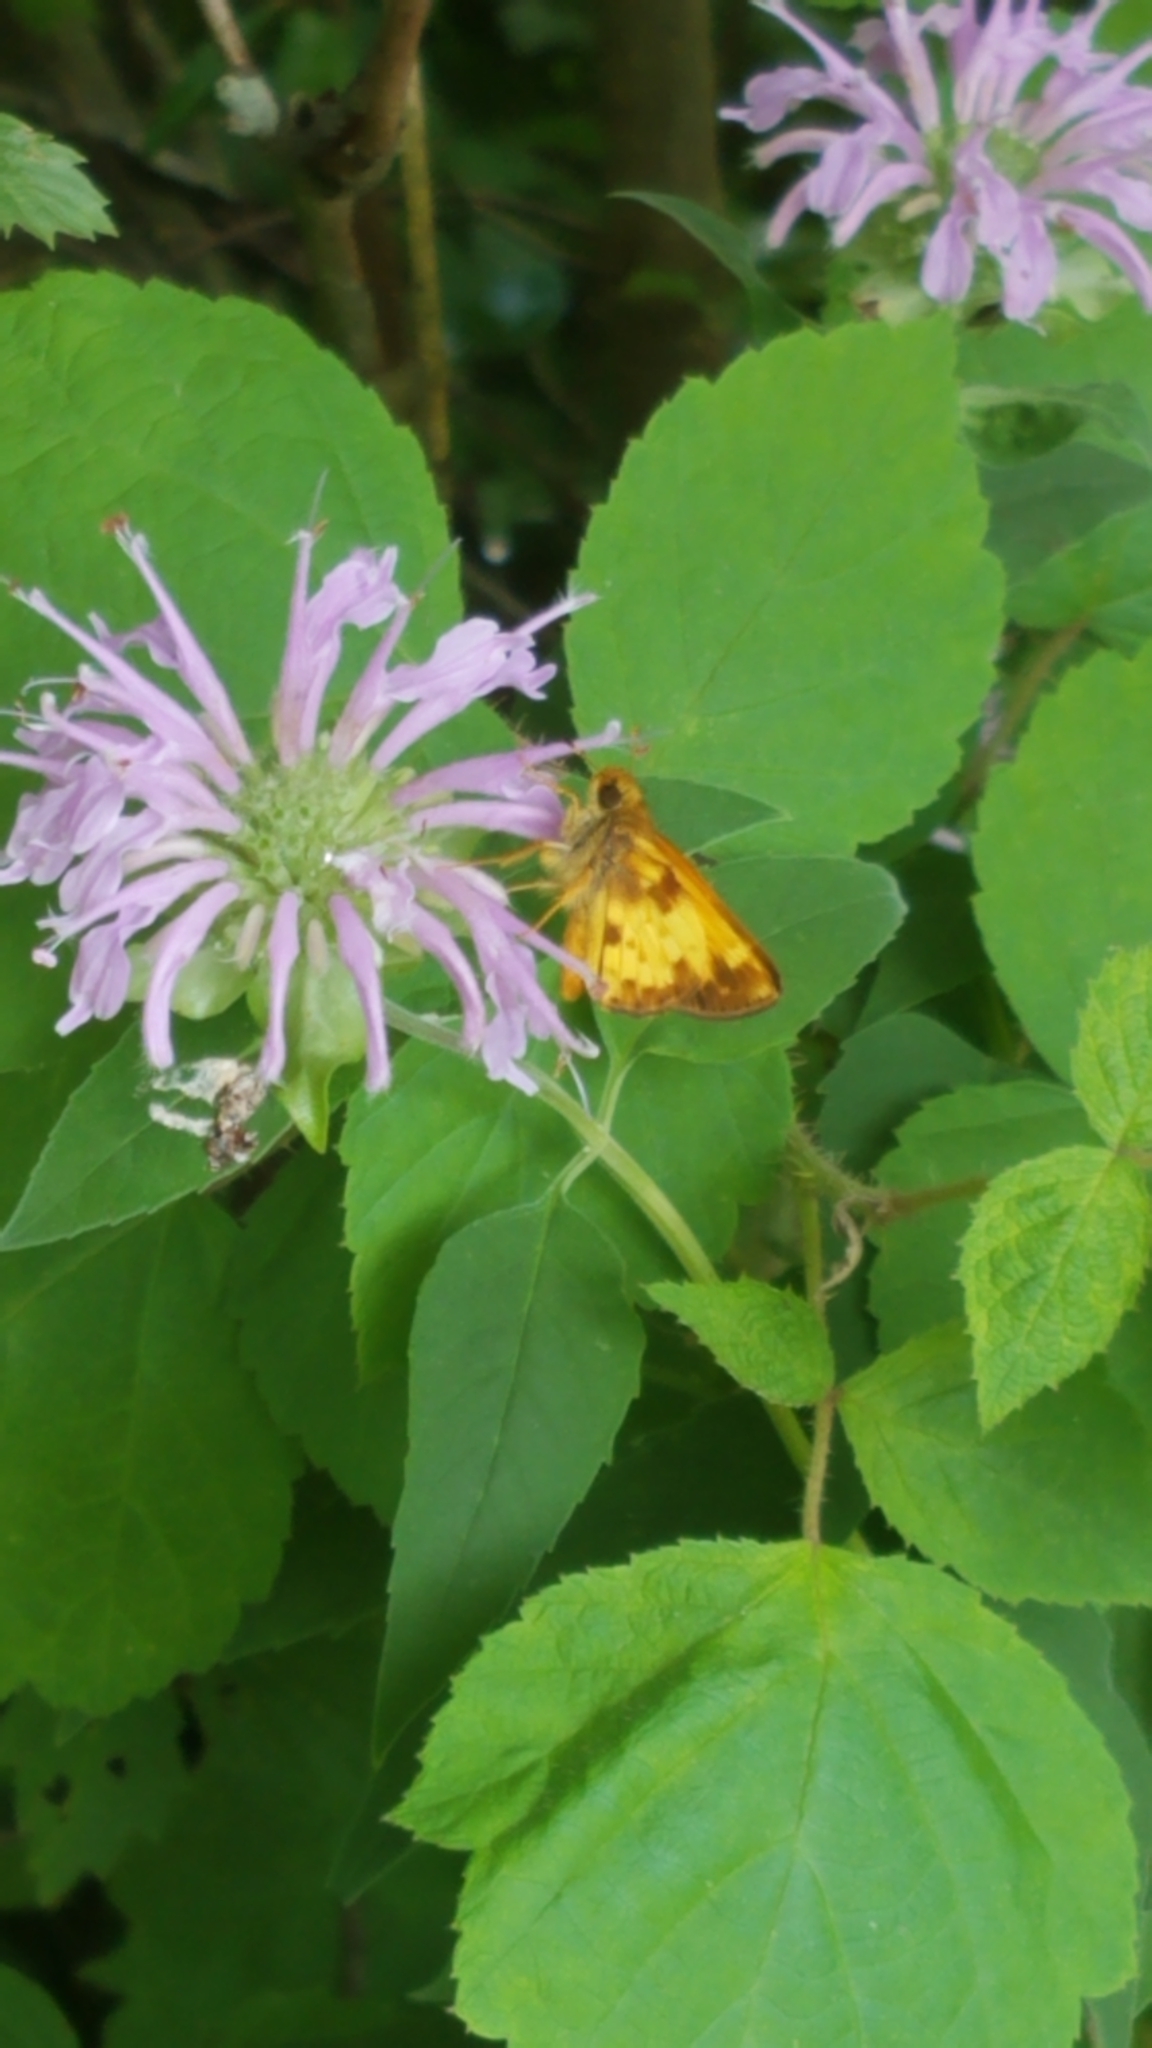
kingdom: Animalia
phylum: Arthropoda
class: Insecta
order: Lepidoptera
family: Hesperiidae
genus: Lon
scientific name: Lon zabulon
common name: Zabulon skipper
